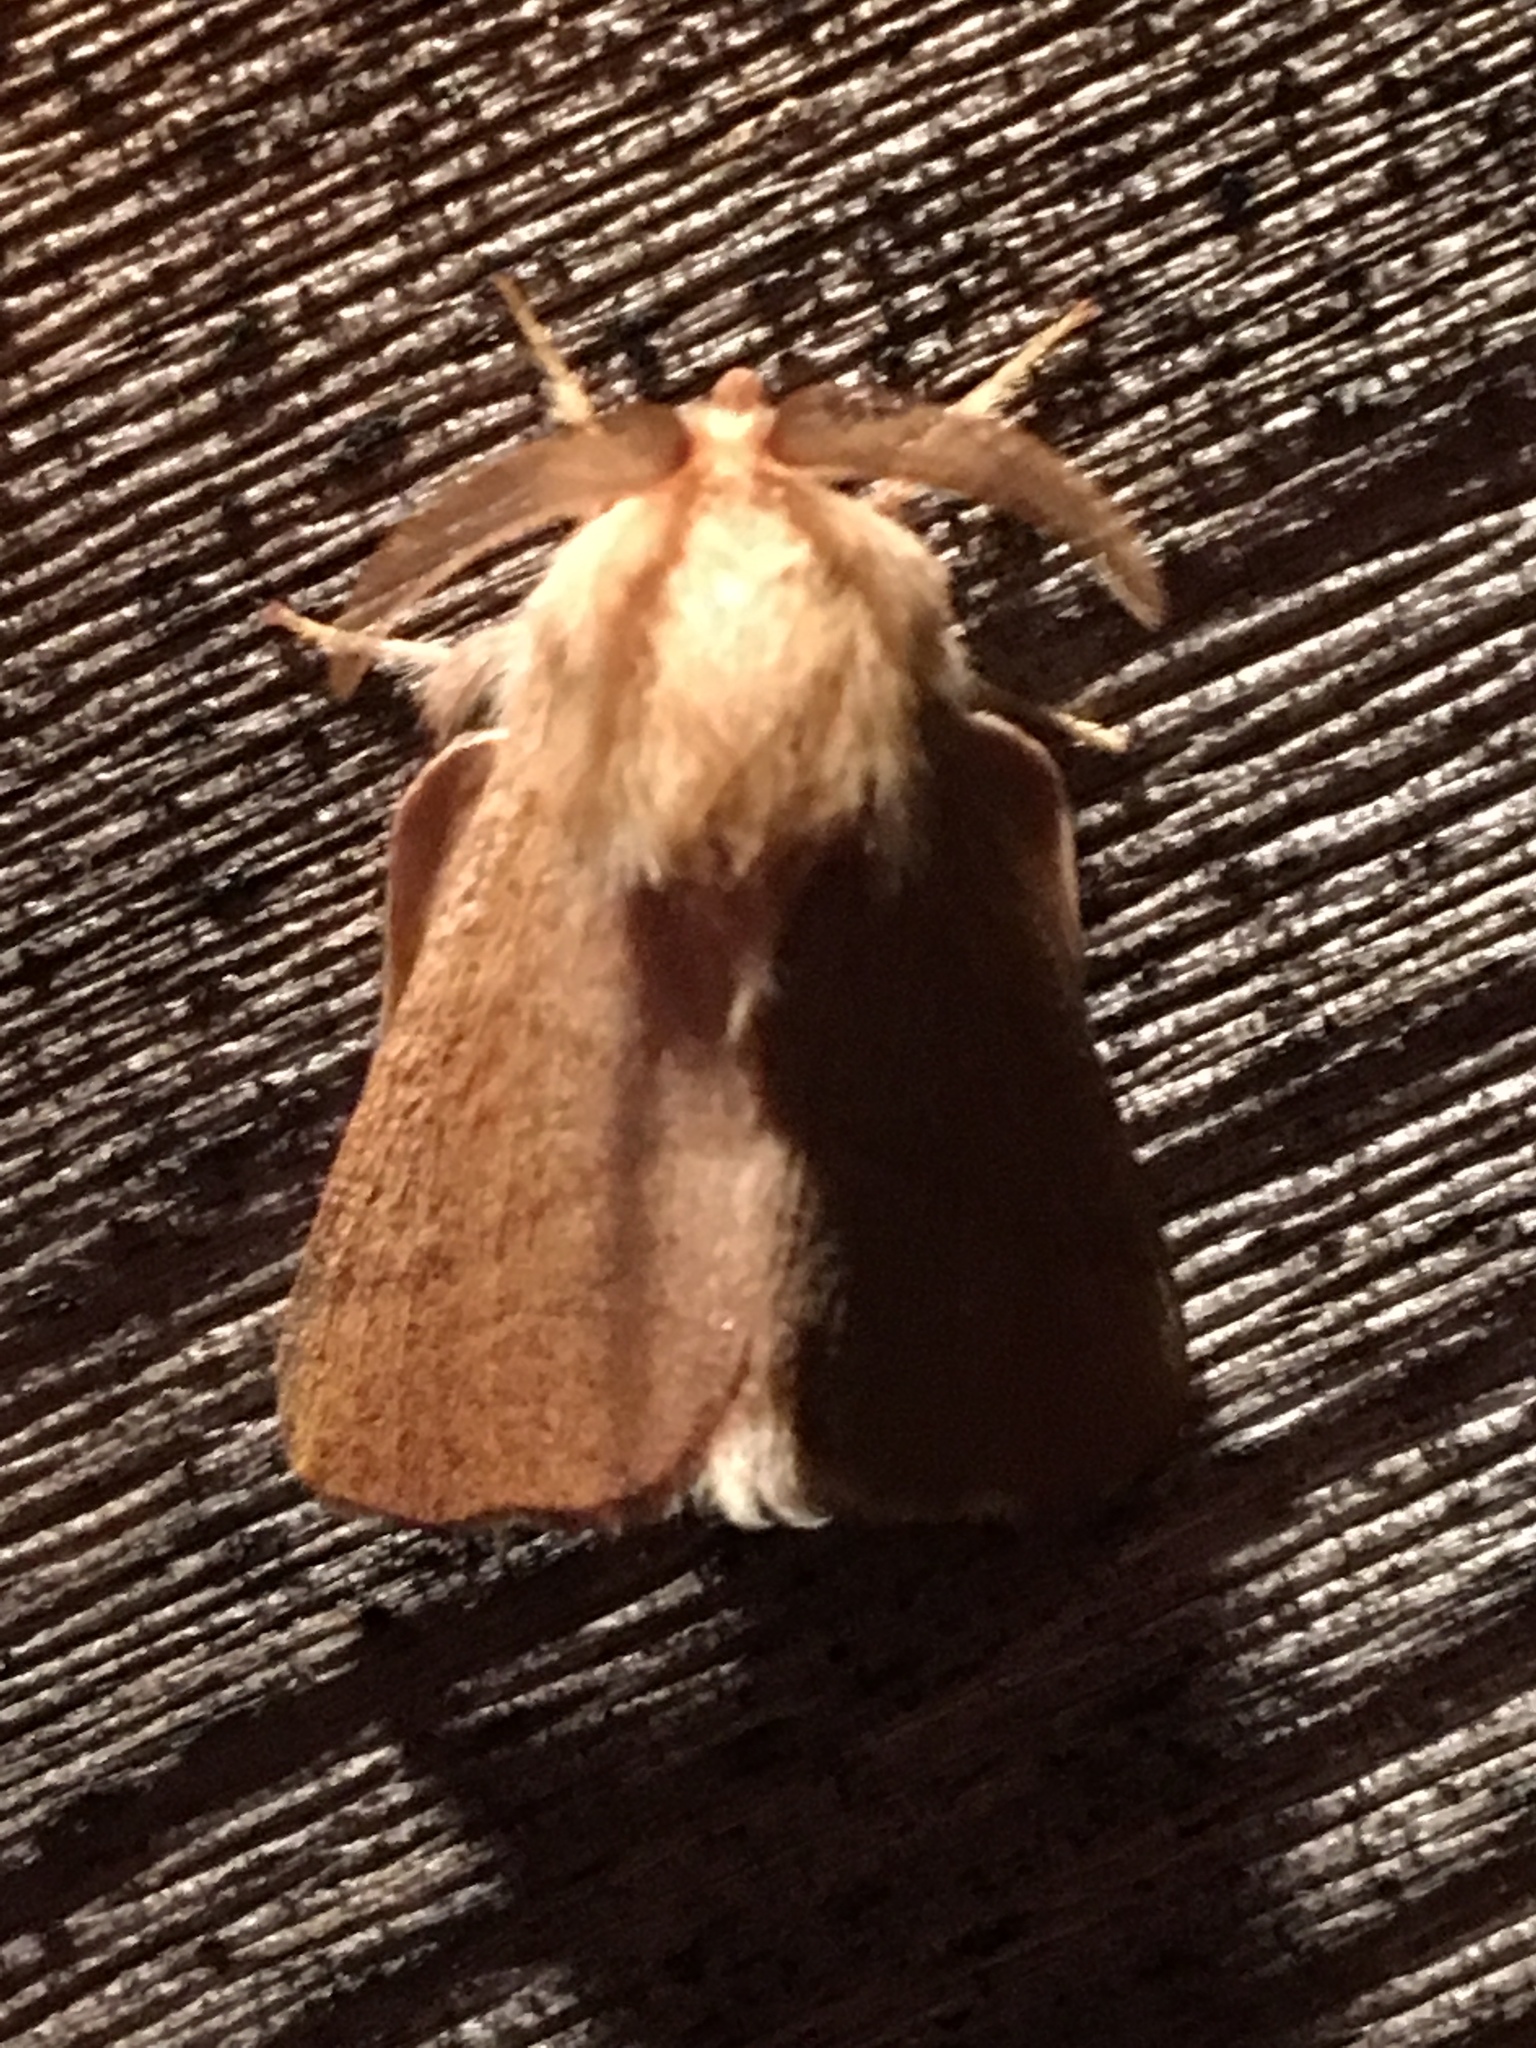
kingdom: Animalia
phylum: Arthropoda
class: Insecta
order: Lepidoptera
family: Lasiocampidae
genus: Malacosoma
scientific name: Malacosoma disstria
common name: Forest tent caterpillar
